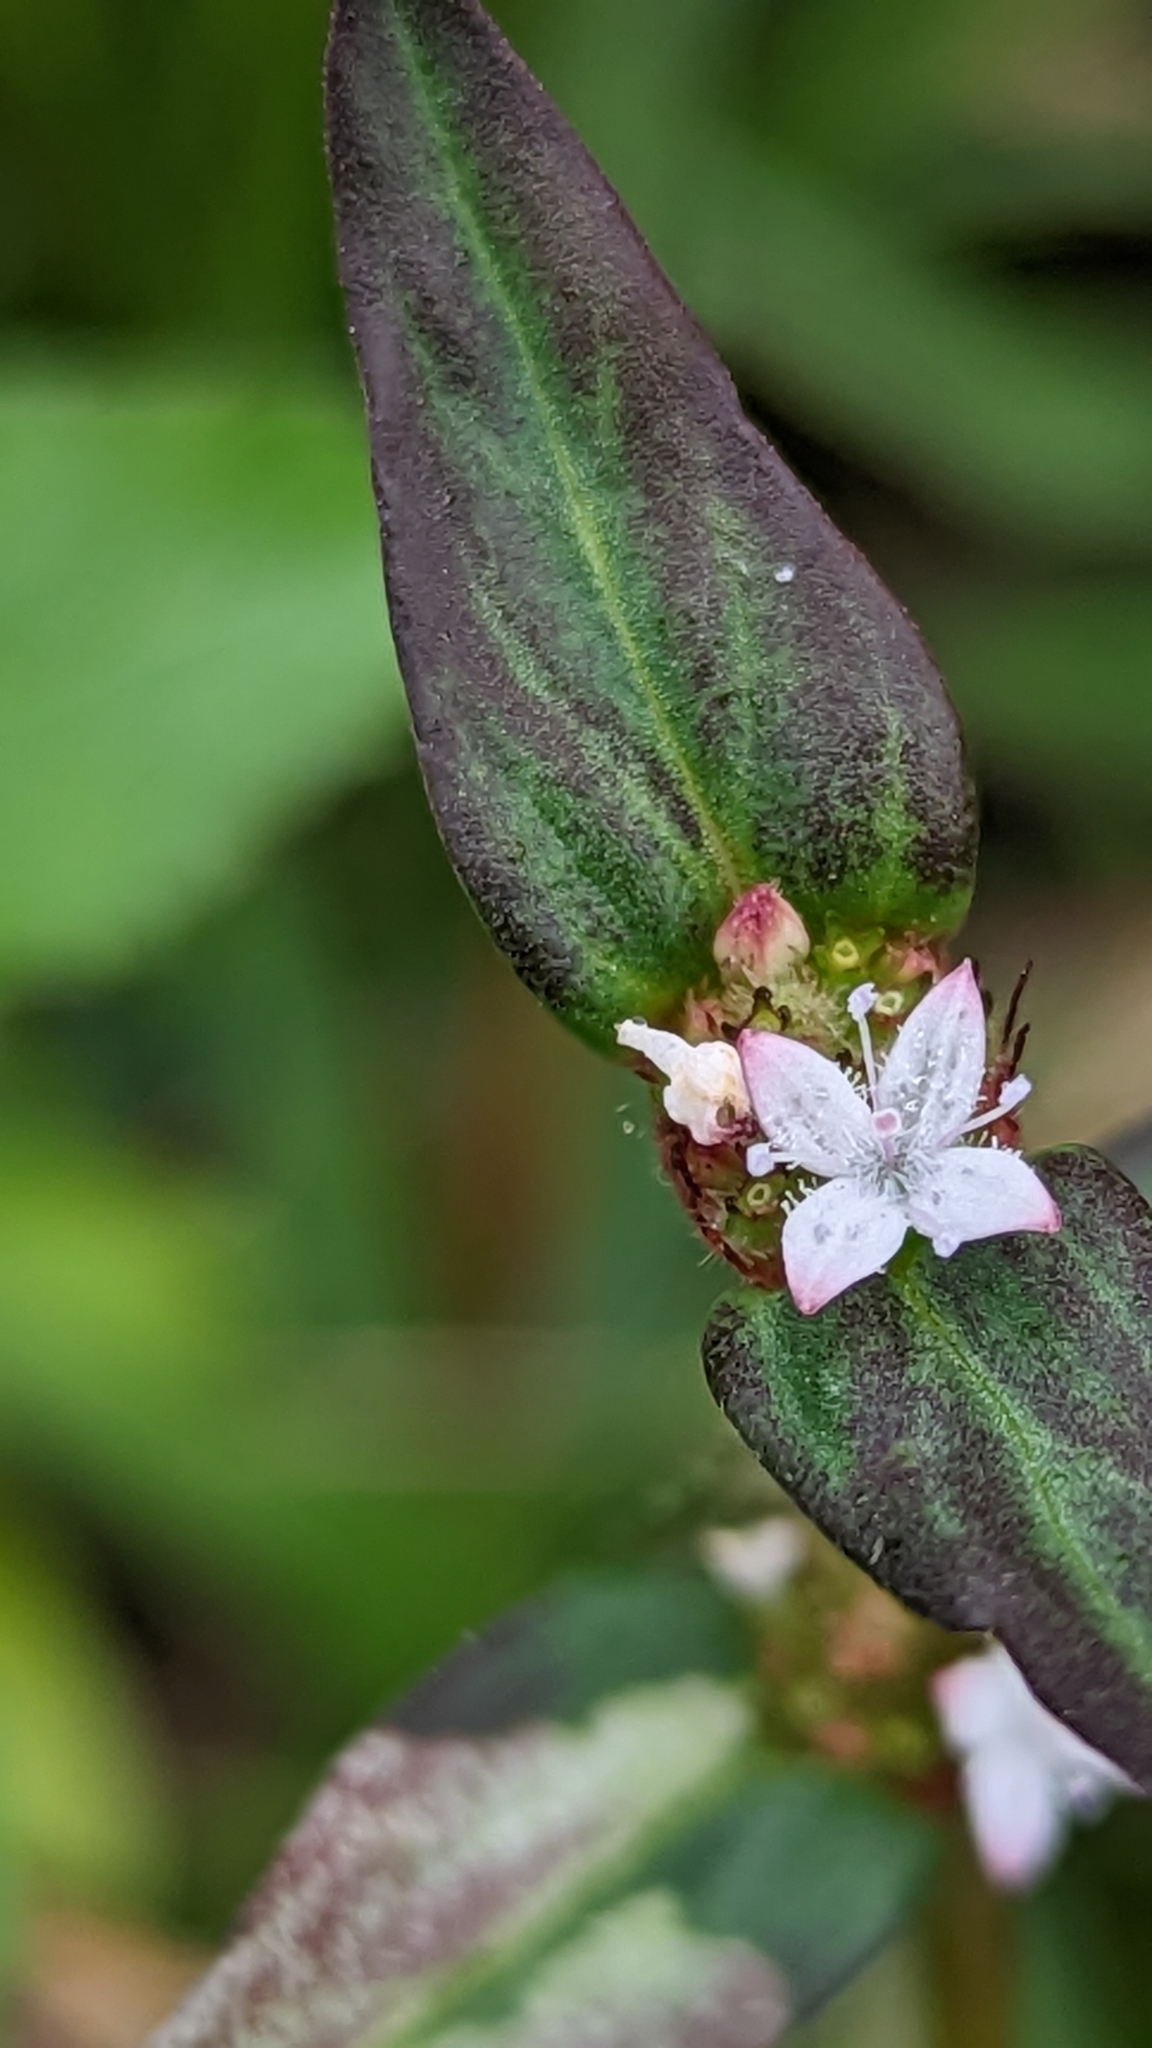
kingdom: Plantae
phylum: Tracheophyta
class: Magnoliopsida
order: Gentianales
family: Rubiaceae
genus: Spermacoce
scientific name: Spermacoce remota
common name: Woodland false buttonweed
